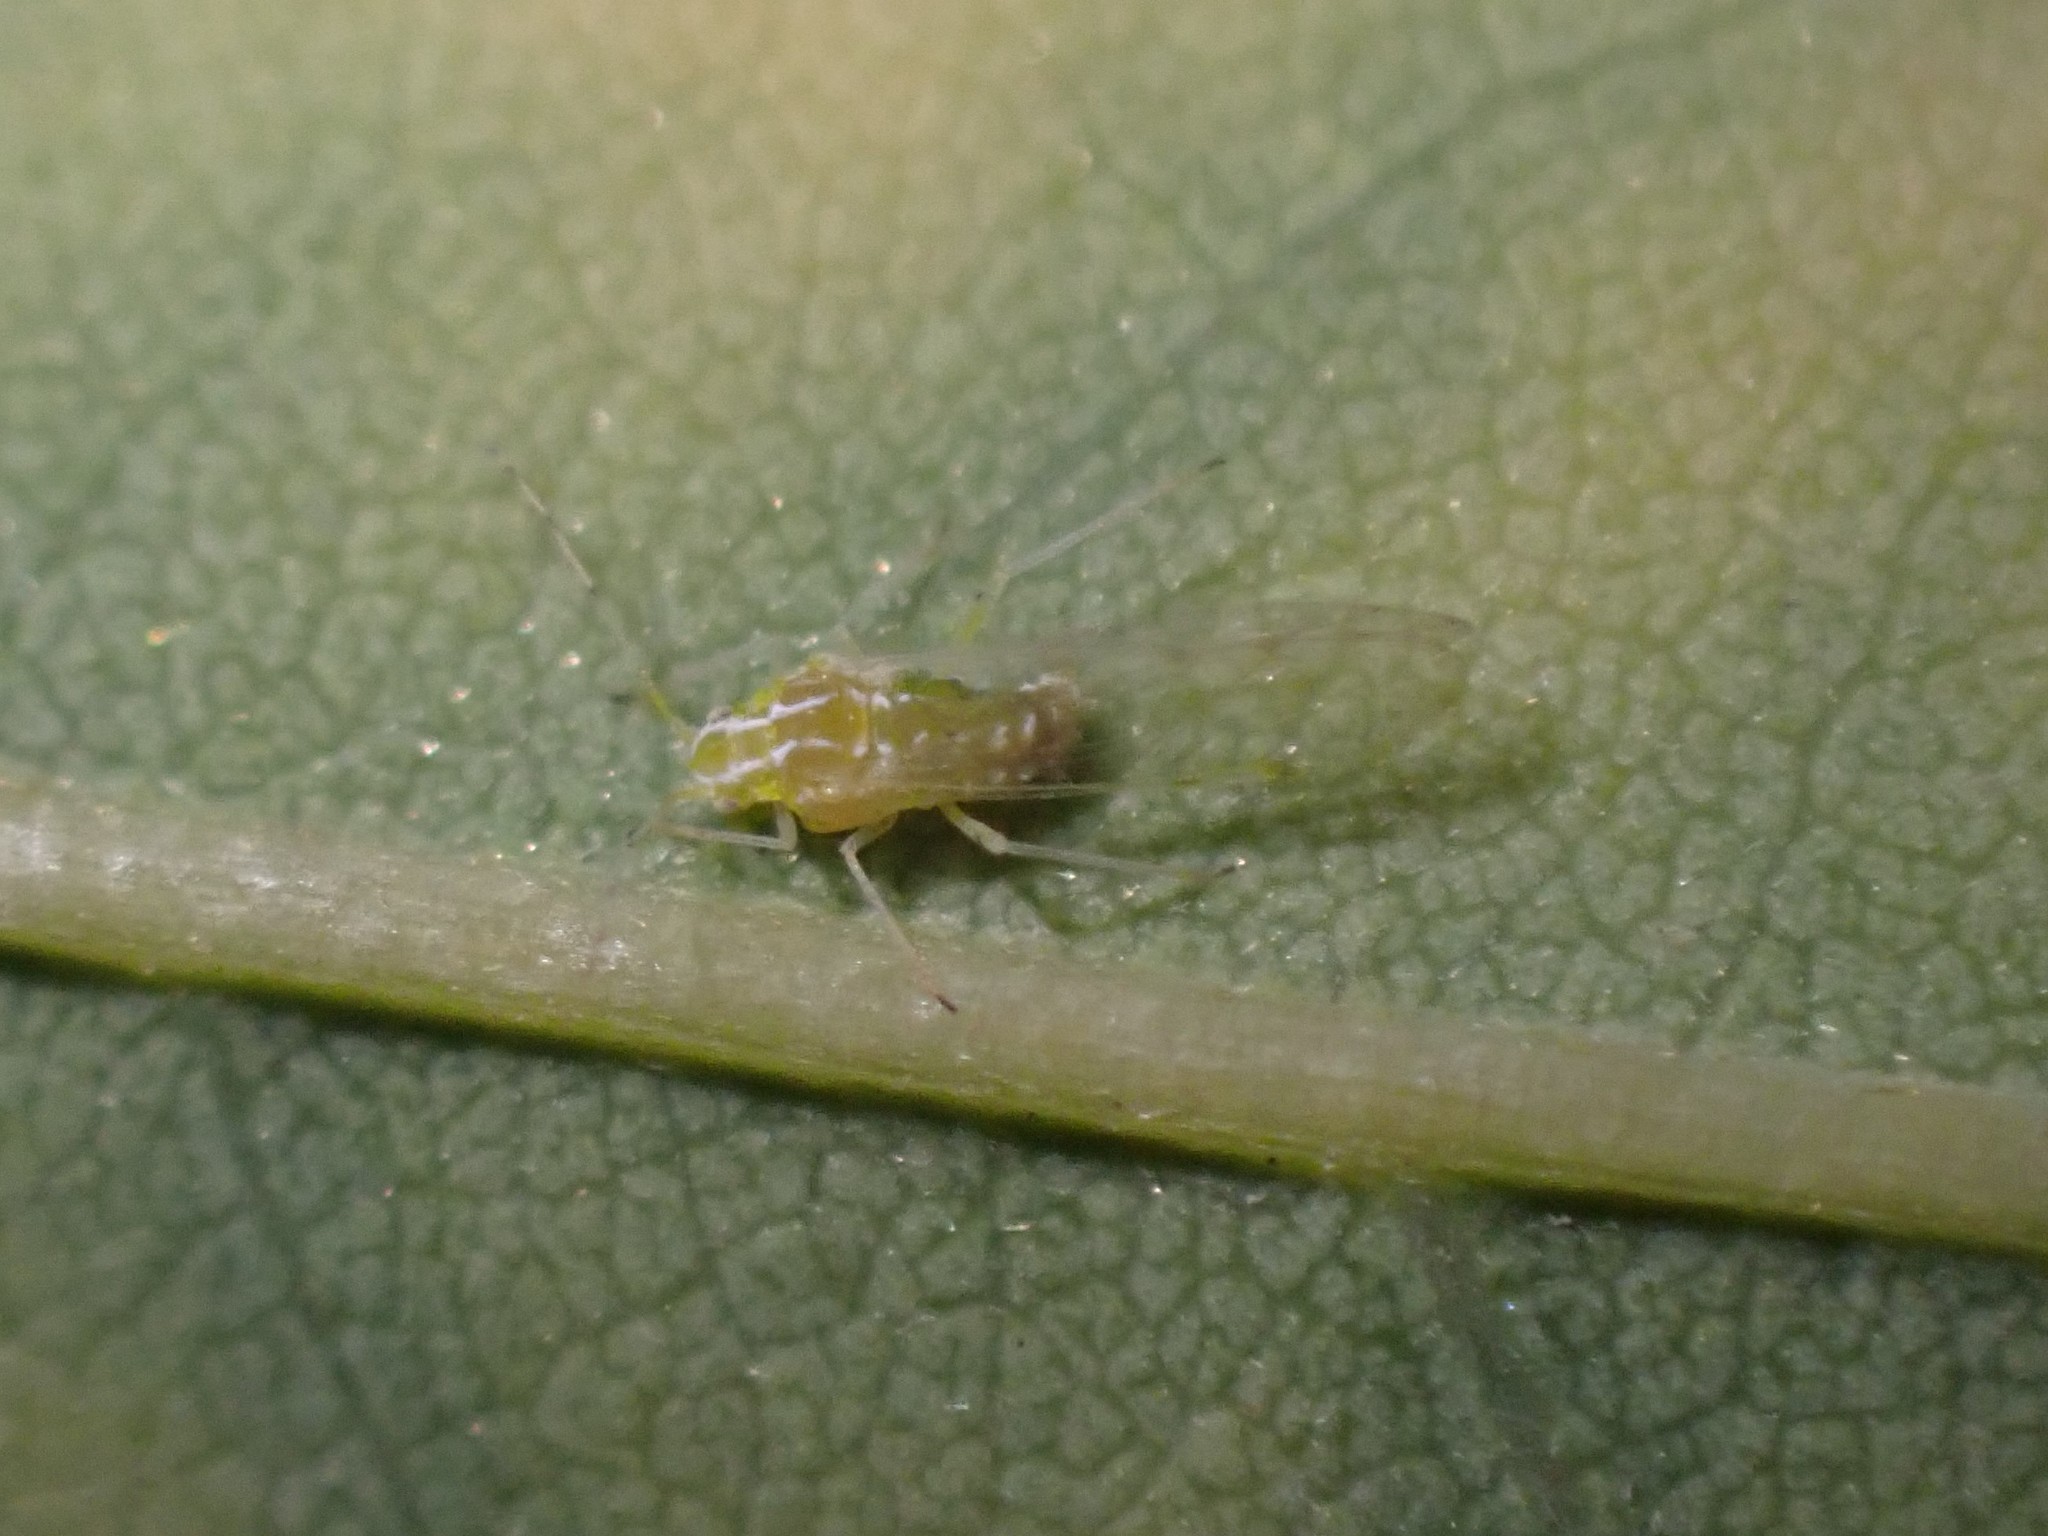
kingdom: Animalia
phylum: Arthropoda
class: Insecta
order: Hemiptera
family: Aphididae
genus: Appendiseta
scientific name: Appendiseta robiniae
